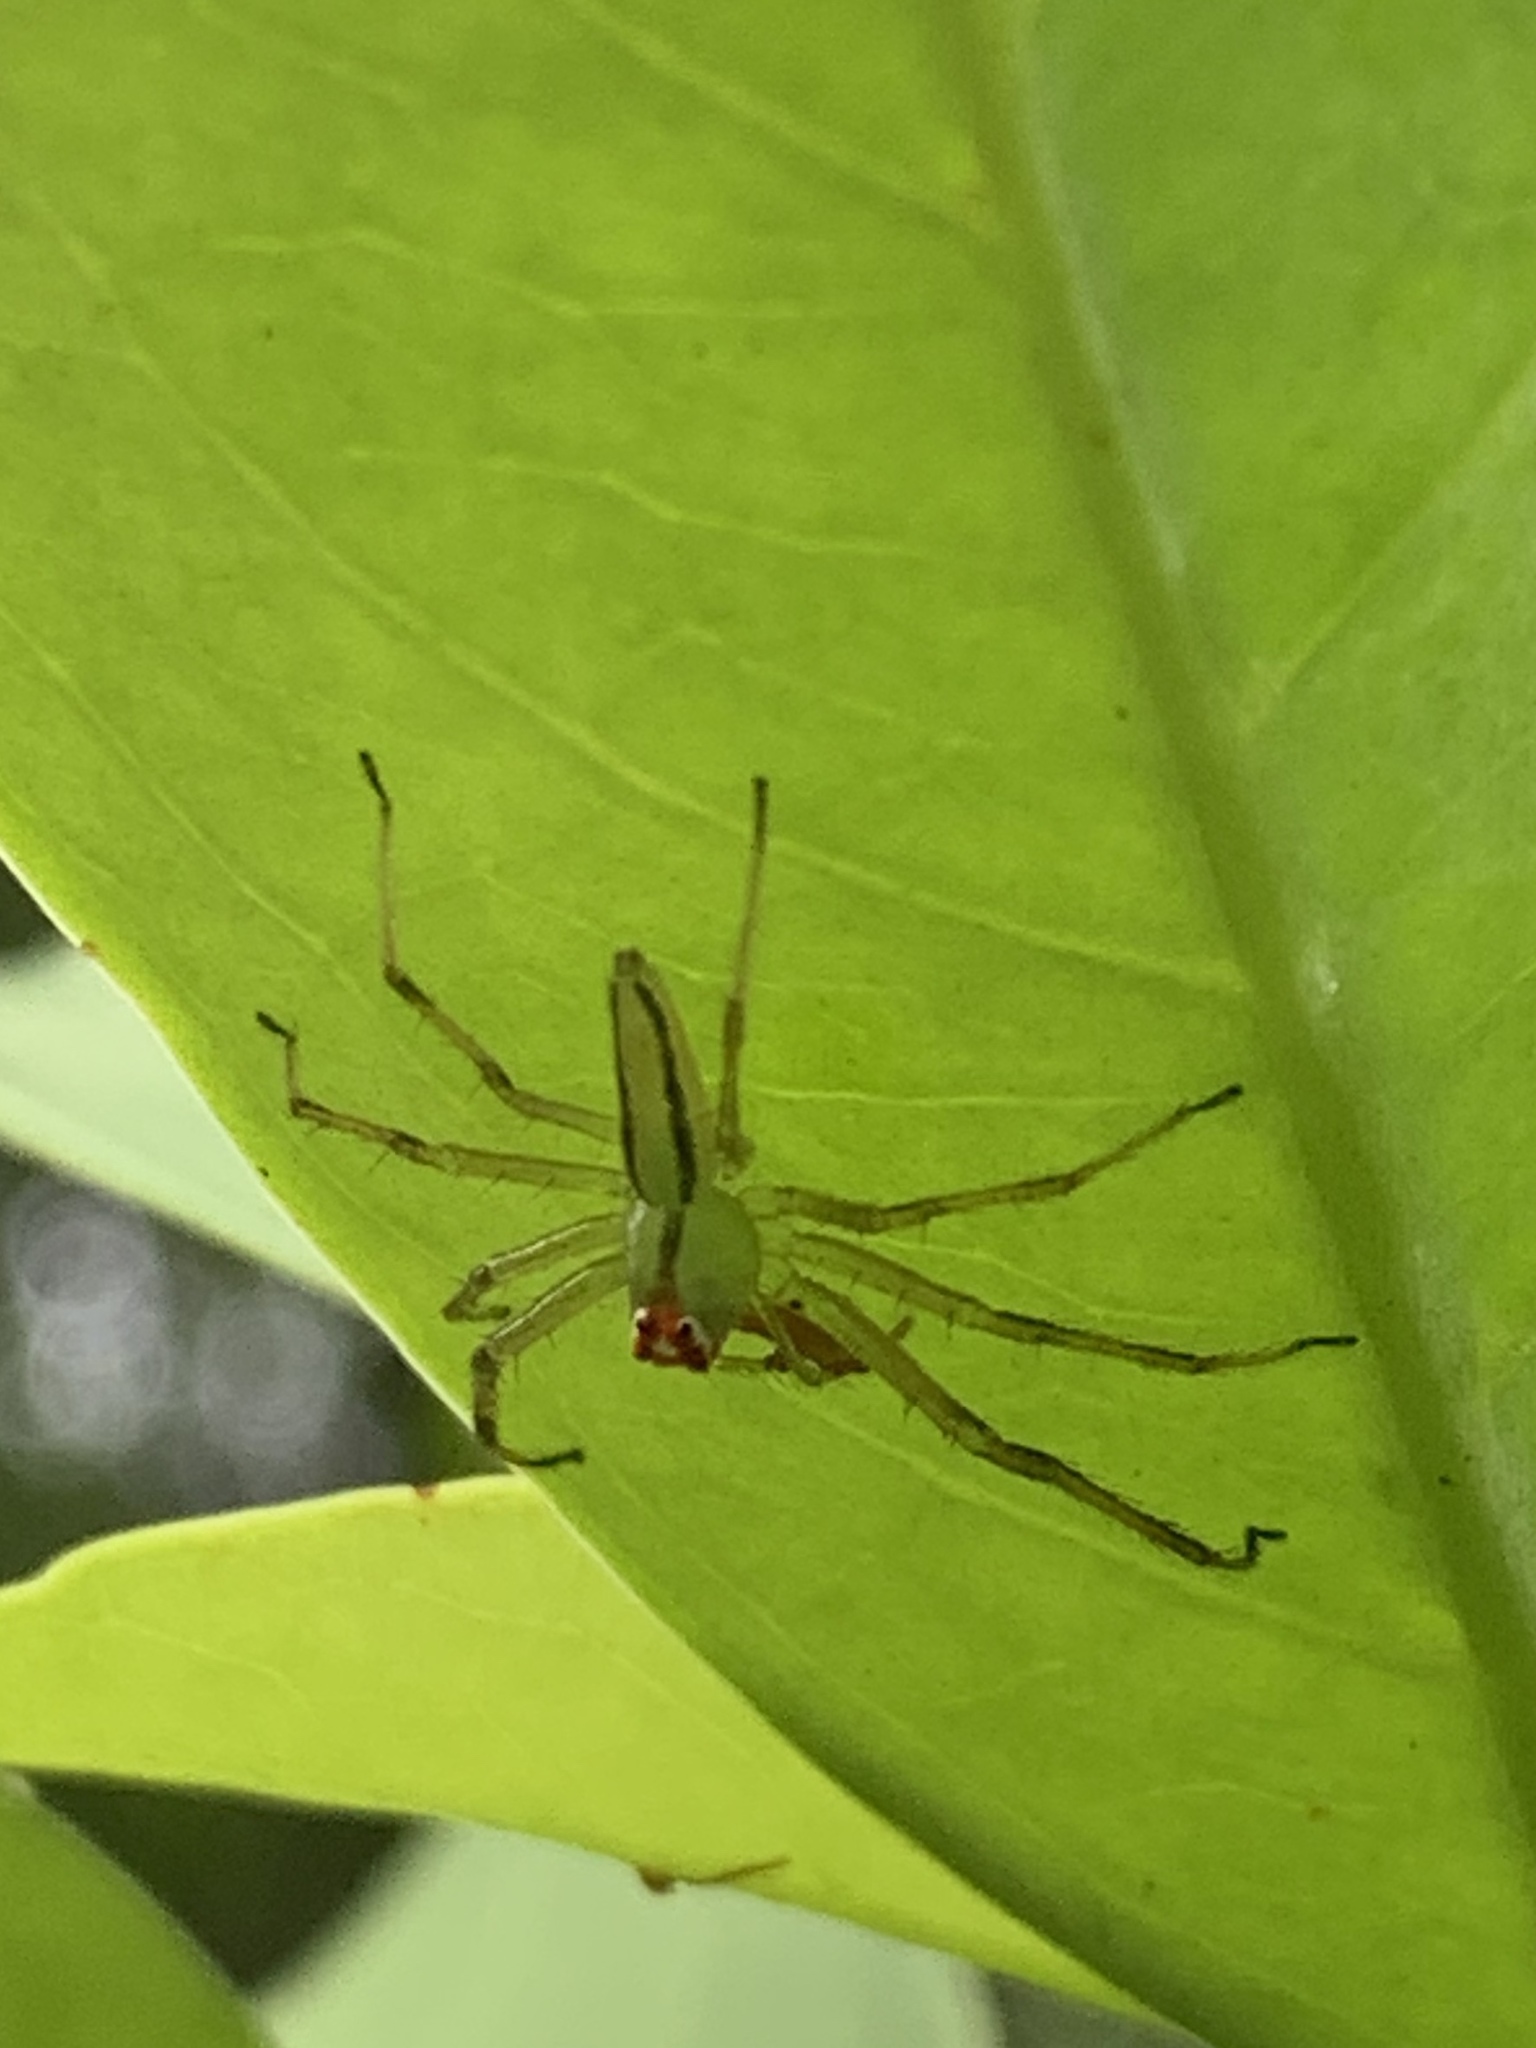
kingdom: Animalia
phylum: Arthropoda
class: Arachnida
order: Araneae
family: Salticidae
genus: Lyssomanes
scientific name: Lyssomanes viridis
